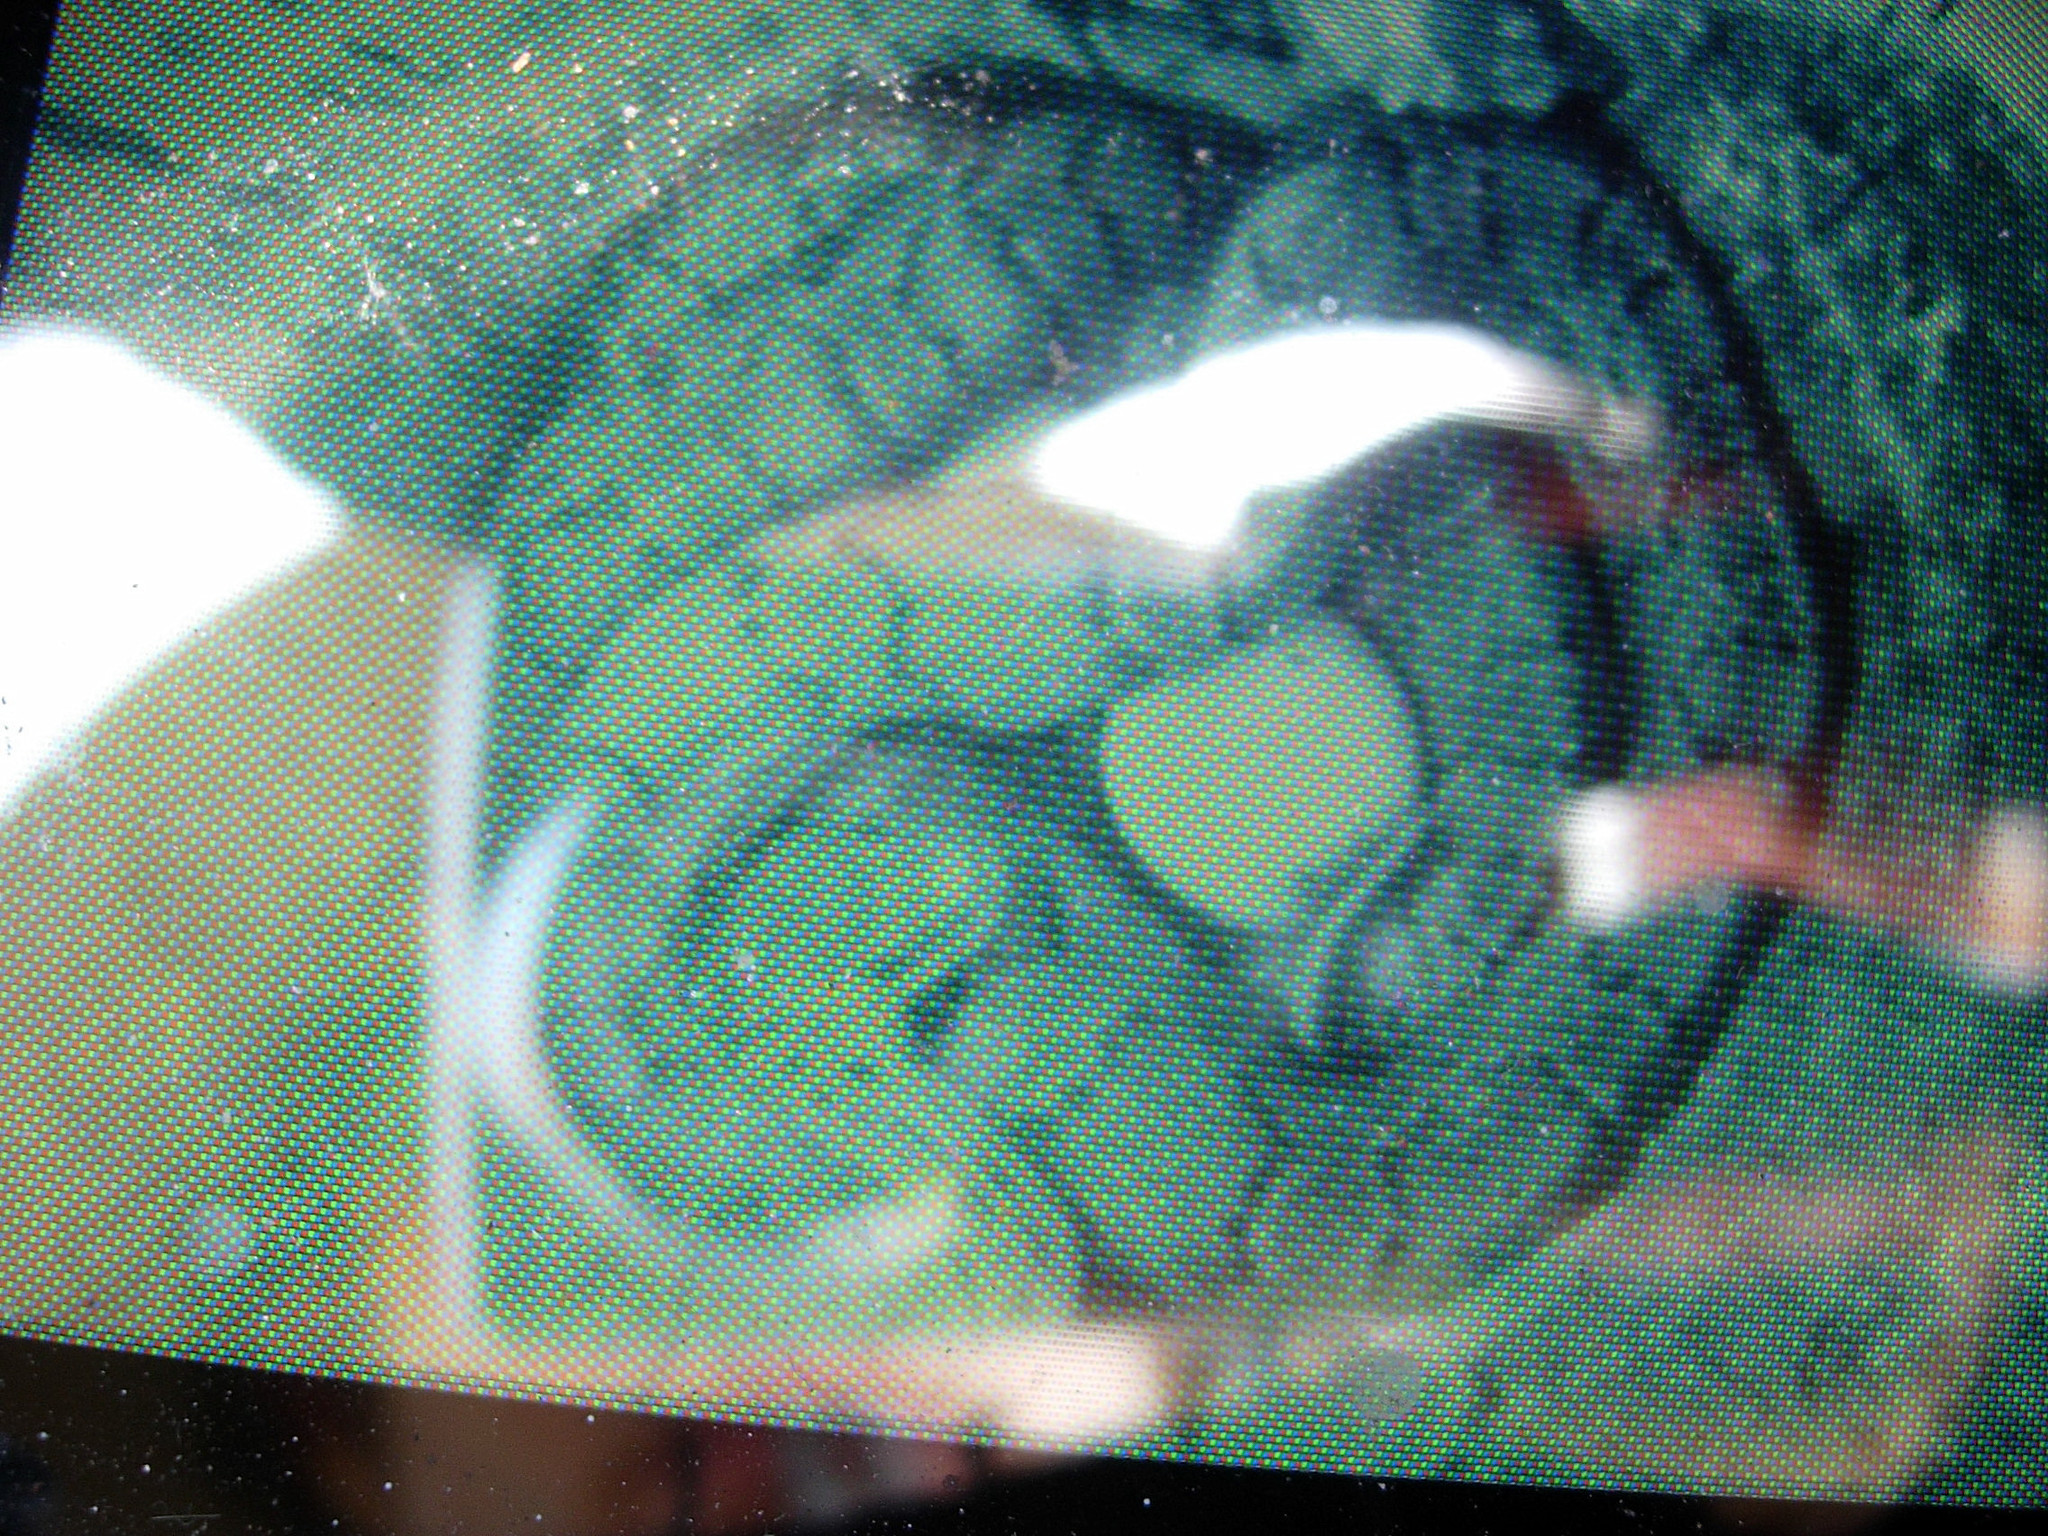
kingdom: Animalia
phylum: Chordata
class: Squamata
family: Colubridae
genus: Pantherophis
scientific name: Pantherophis guttatus
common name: Red cornsnake
